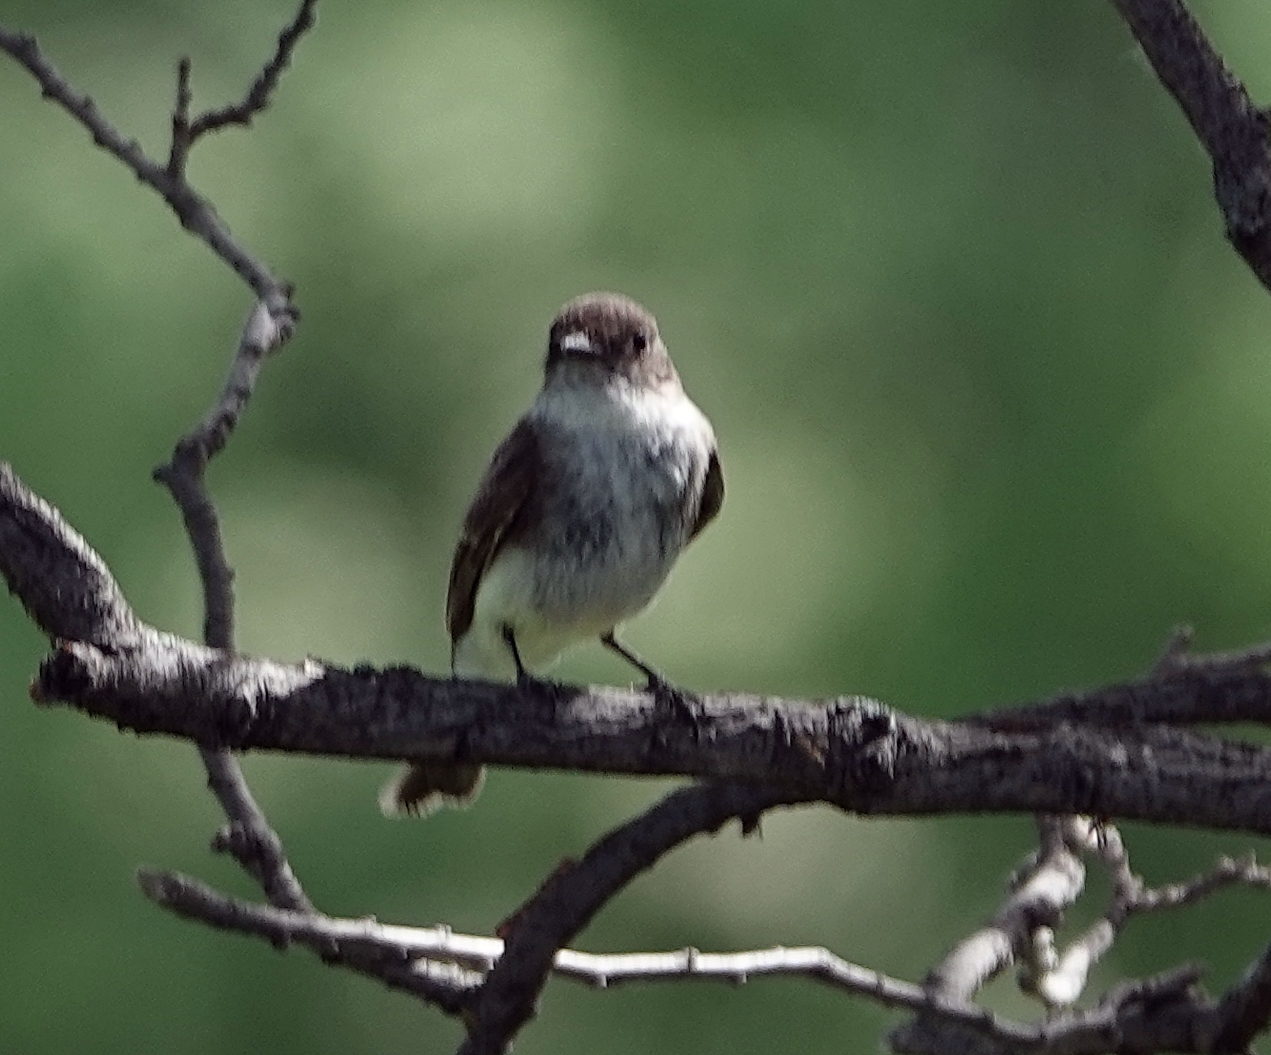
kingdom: Animalia
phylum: Chordata
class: Aves
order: Passeriformes
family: Tyrannidae
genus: Sayornis
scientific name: Sayornis phoebe
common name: Eastern phoebe
